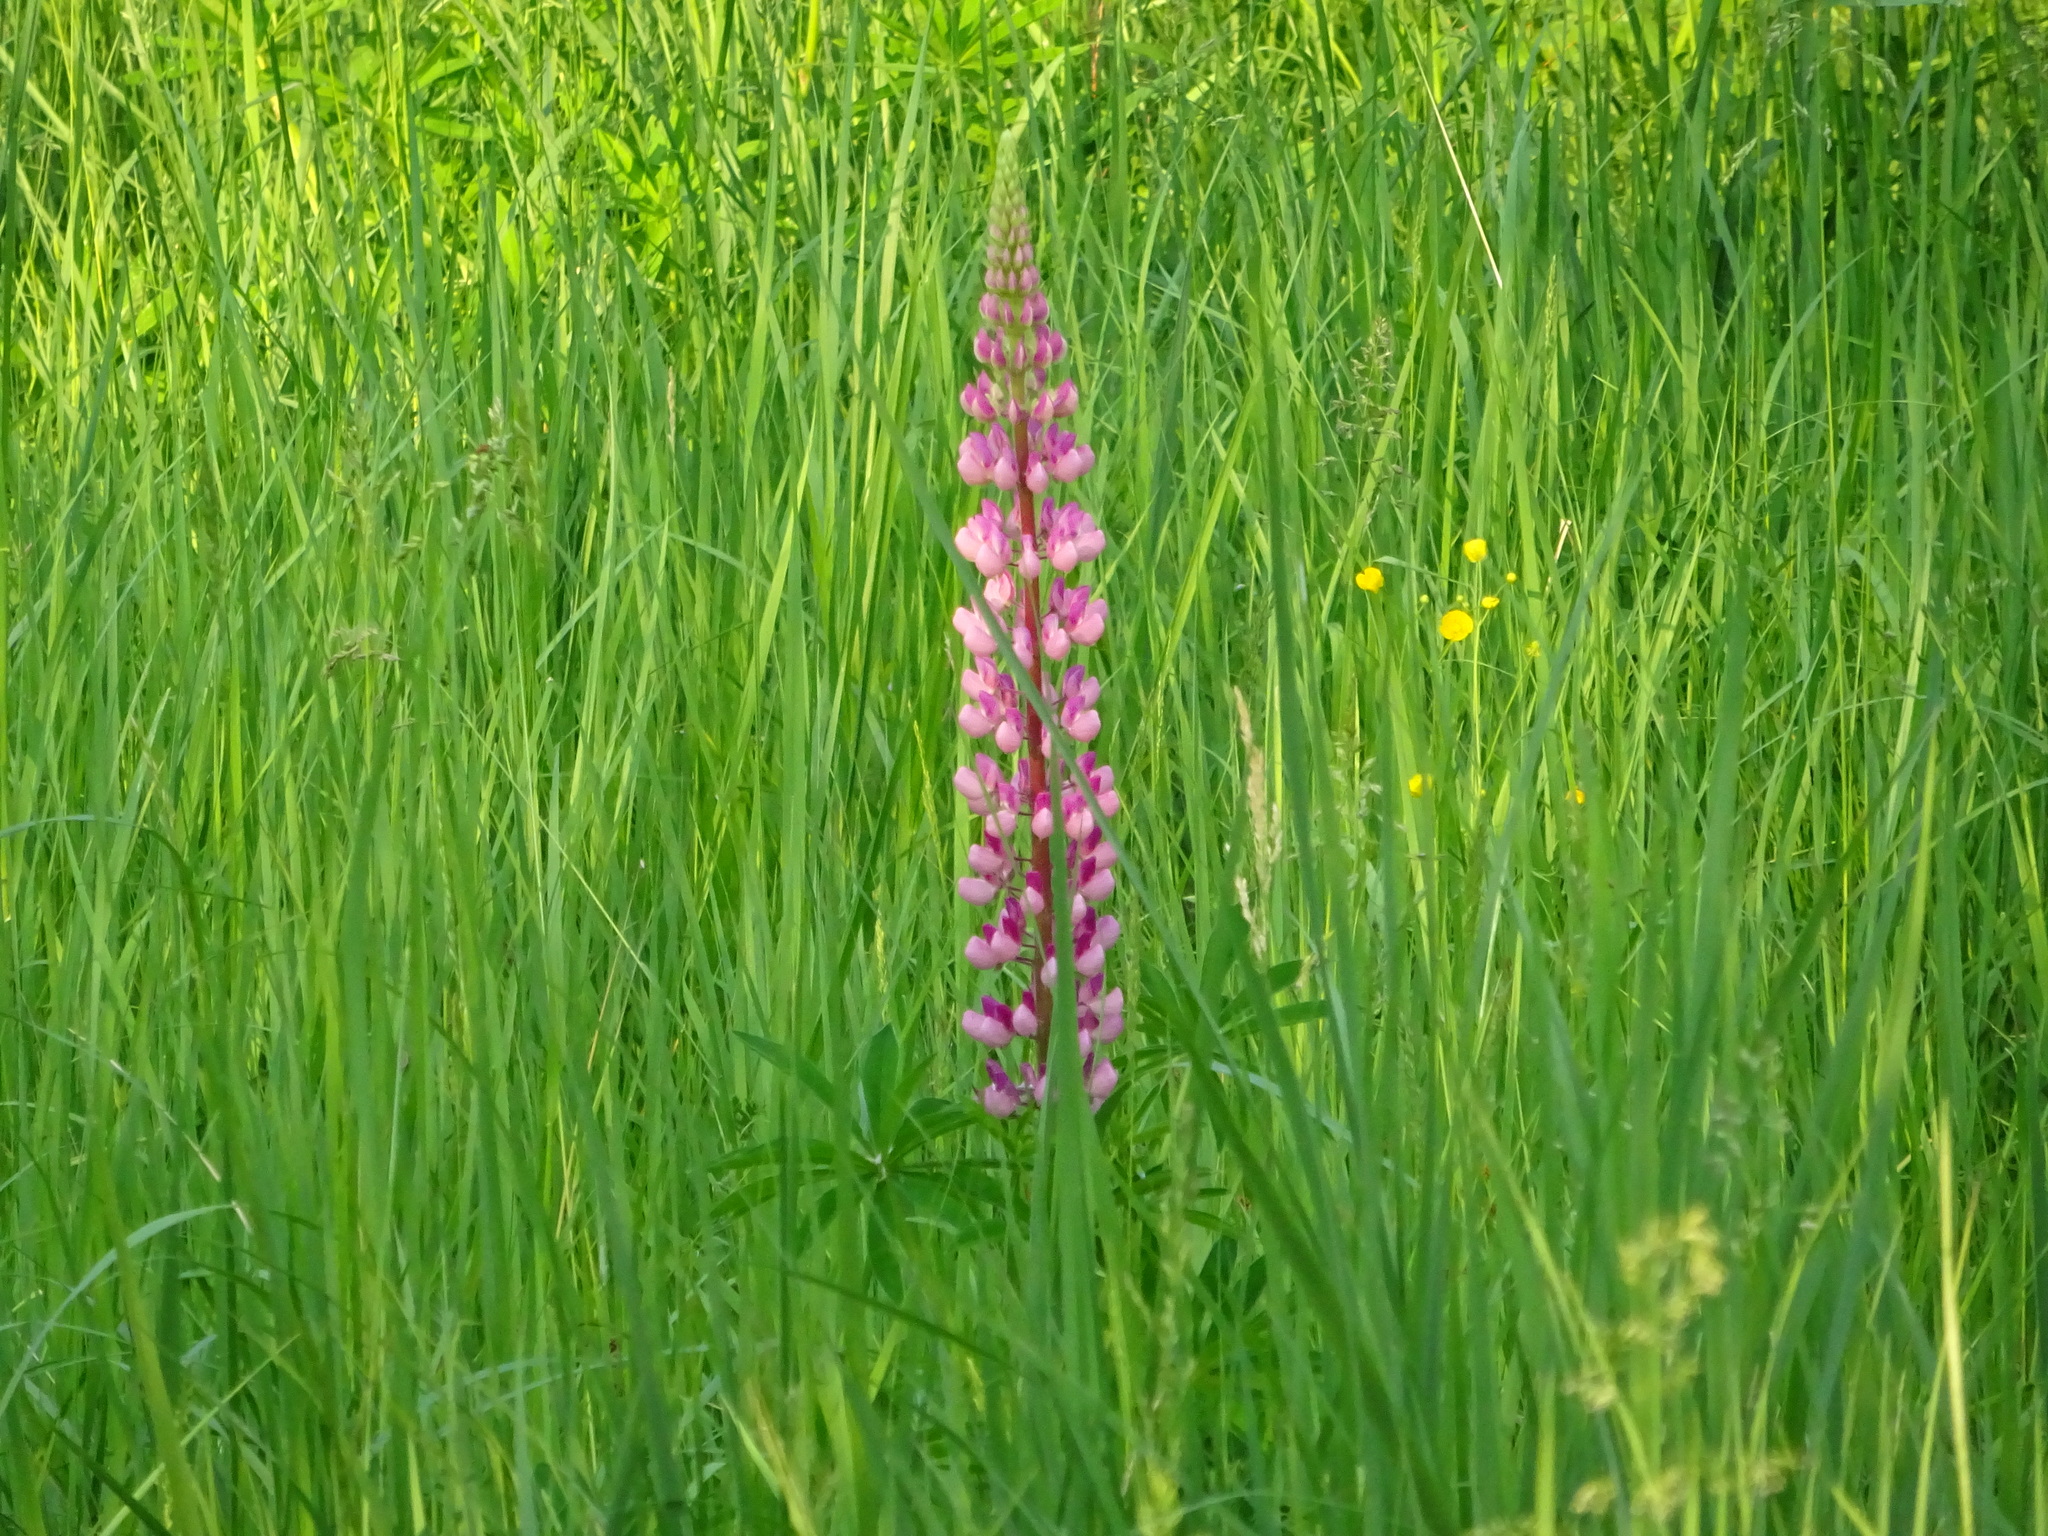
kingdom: Plantae
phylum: Tracheophyta
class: Magnoliopsida
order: Fabales
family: Fabaceae
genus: Lupinus
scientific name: Lupinus polyphyllus
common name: Garden lupin
